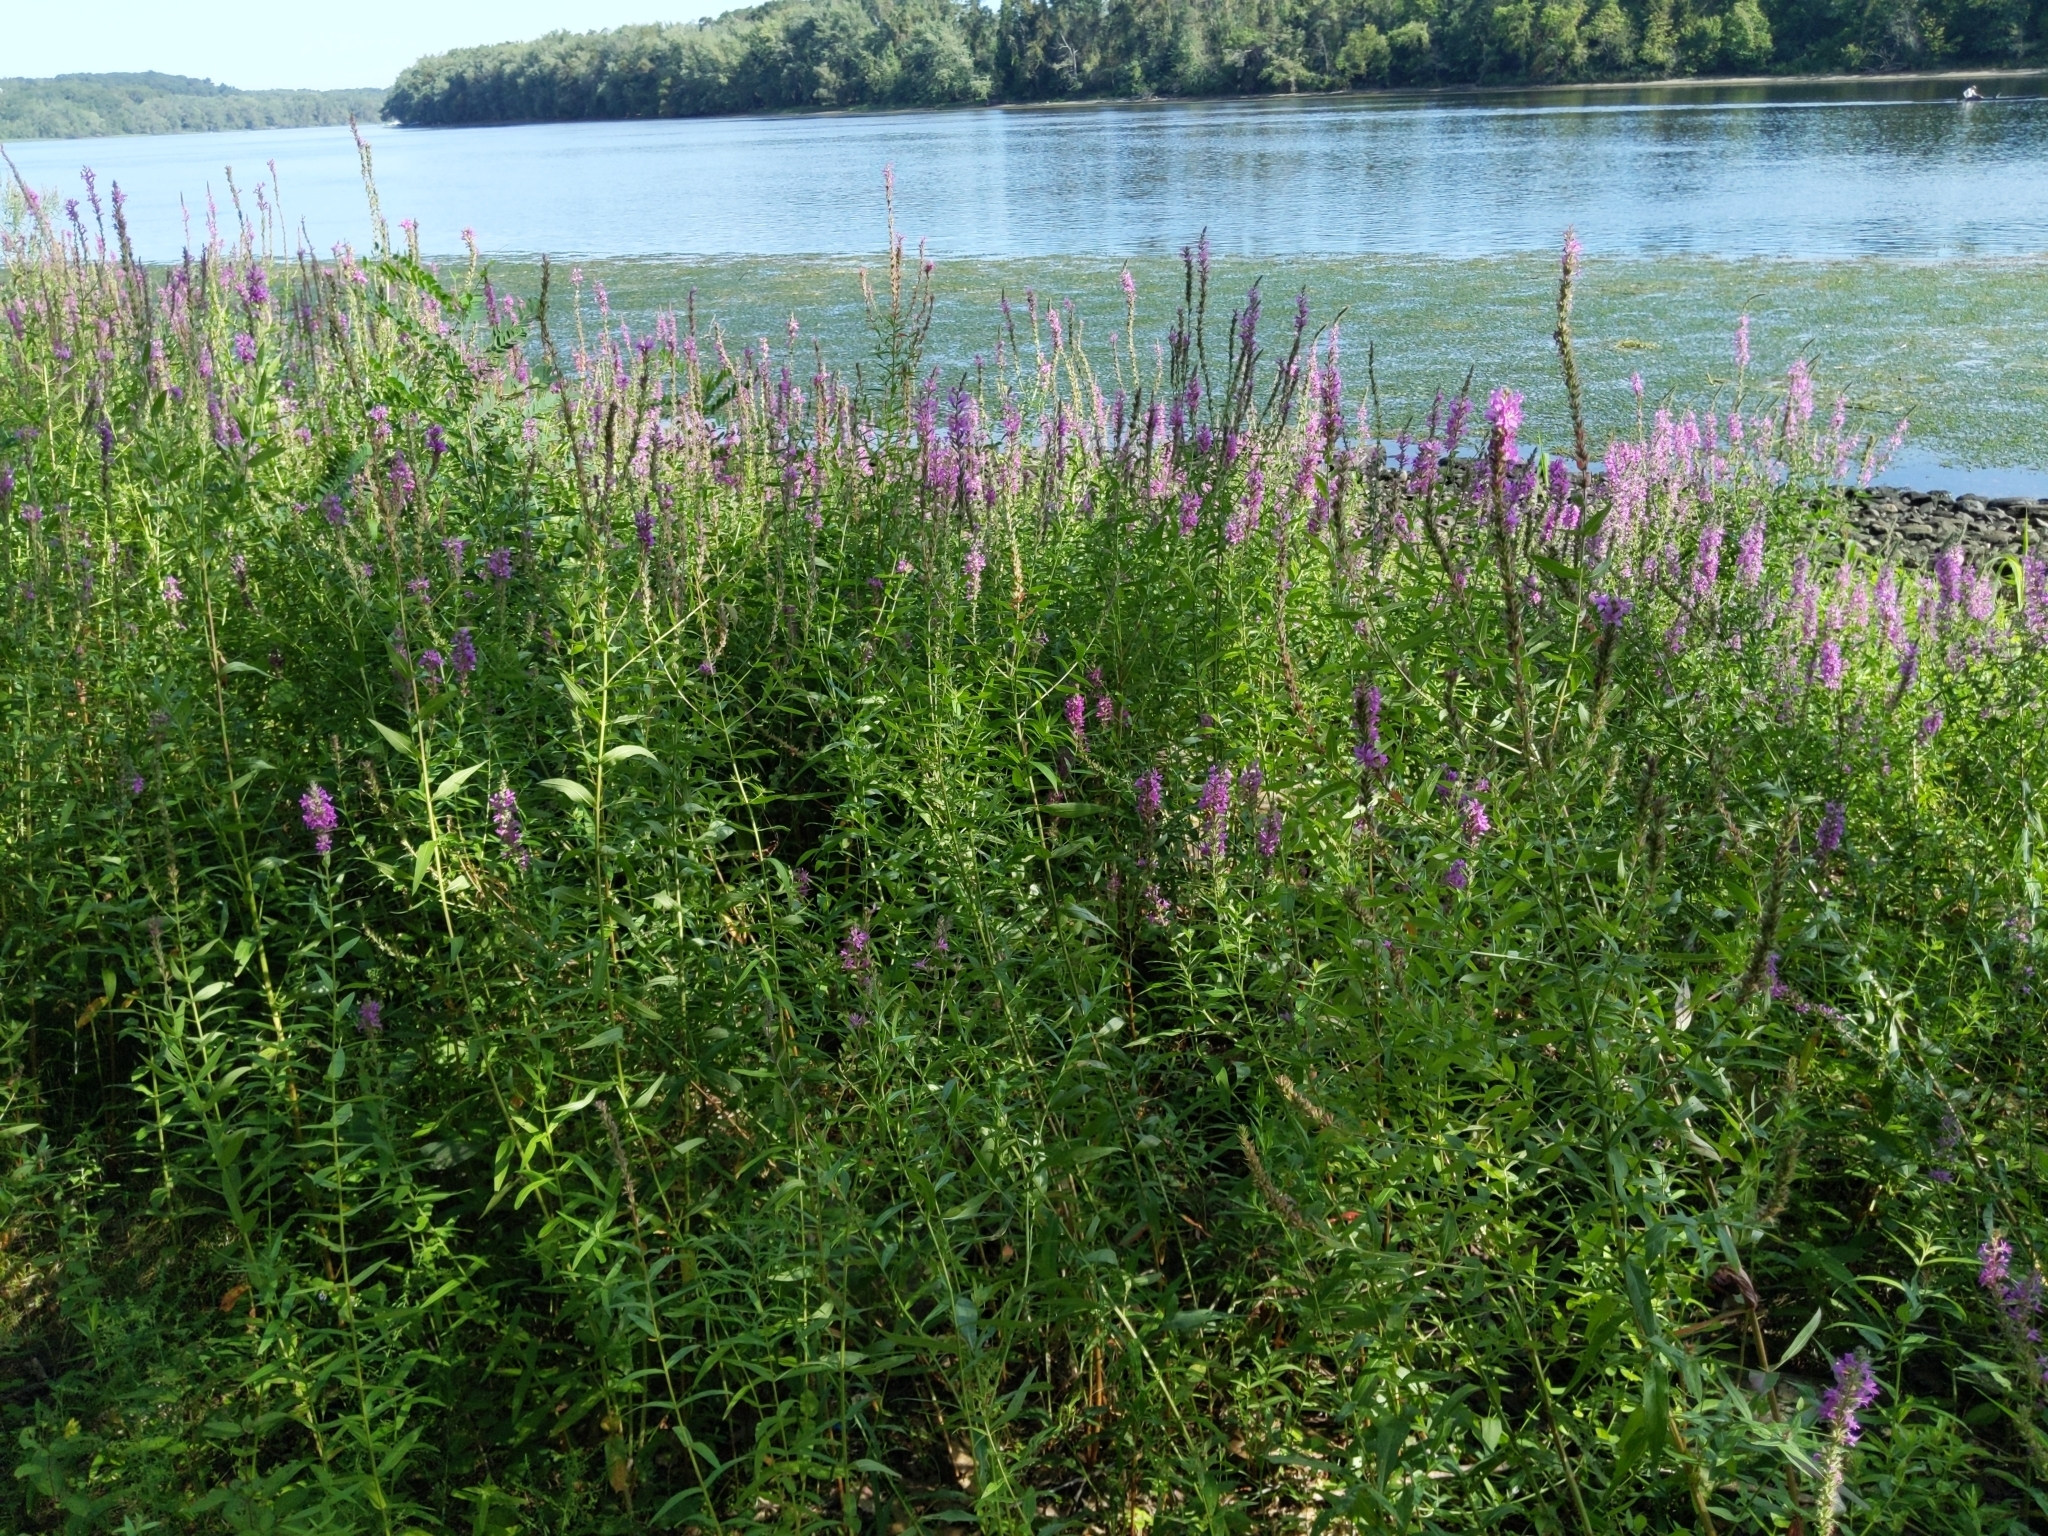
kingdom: Plantae
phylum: Tracheophyta
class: Magnoliopsida
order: Myrtales
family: Lythraceae
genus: Lythrum
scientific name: Lythrum salicaria
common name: Purple loosestrife
